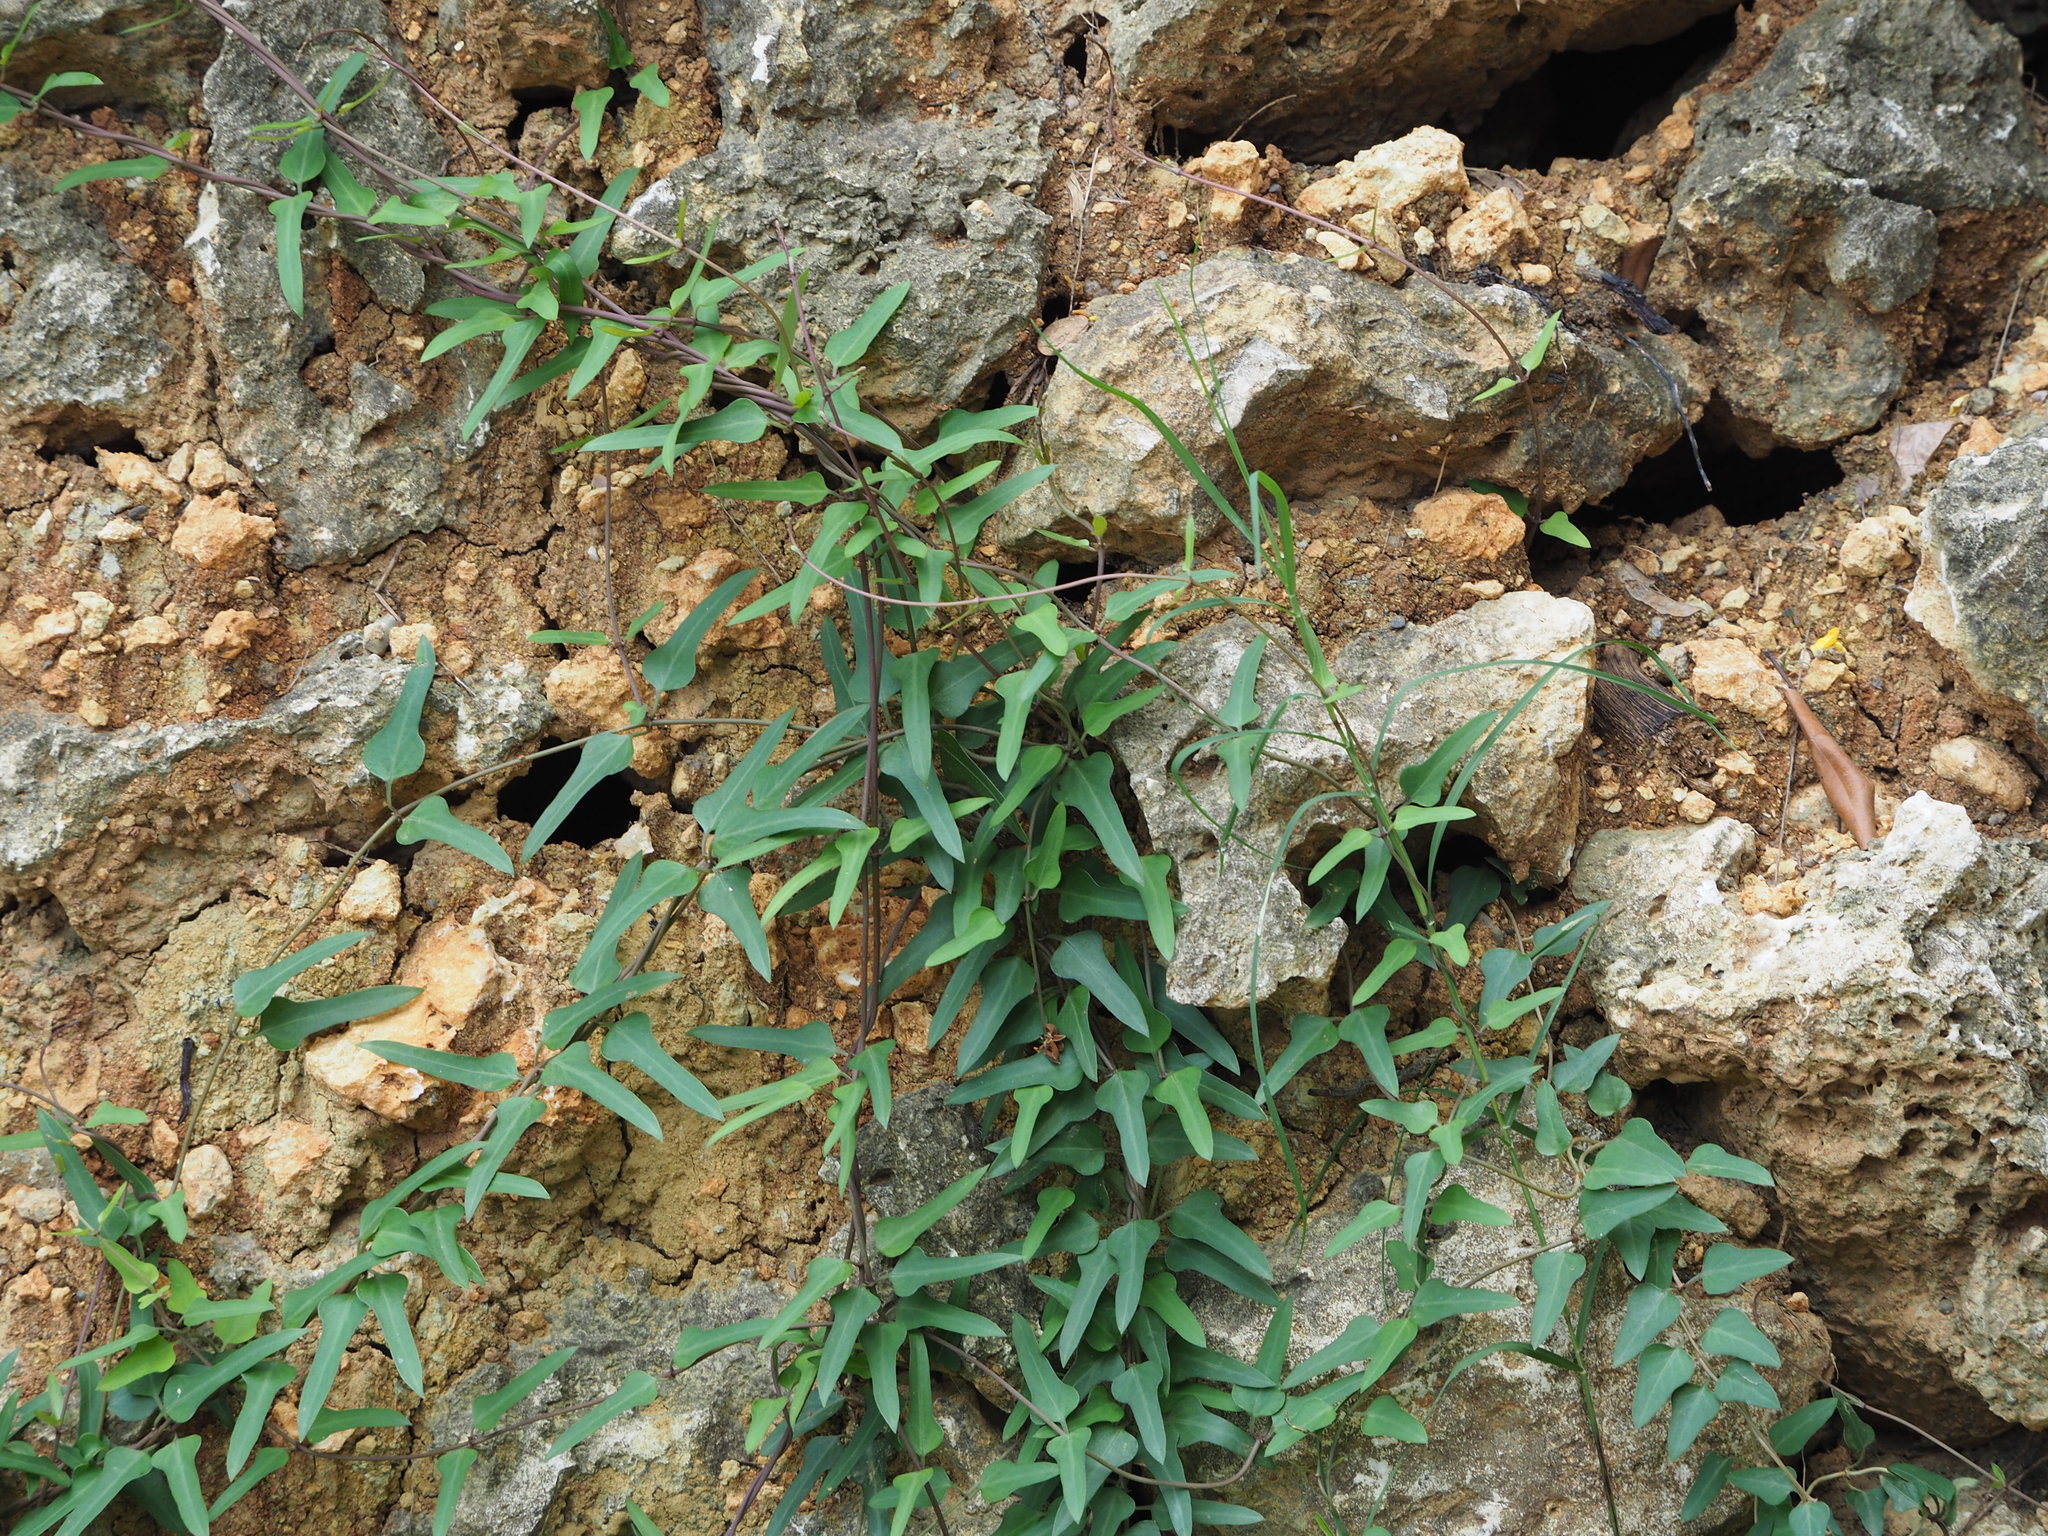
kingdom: Plantae
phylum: Tracheophyta
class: Magnoliopsida
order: Gentianales
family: Rubiaceae
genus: Paederia
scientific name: Paederia foetida
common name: Stinkvine
